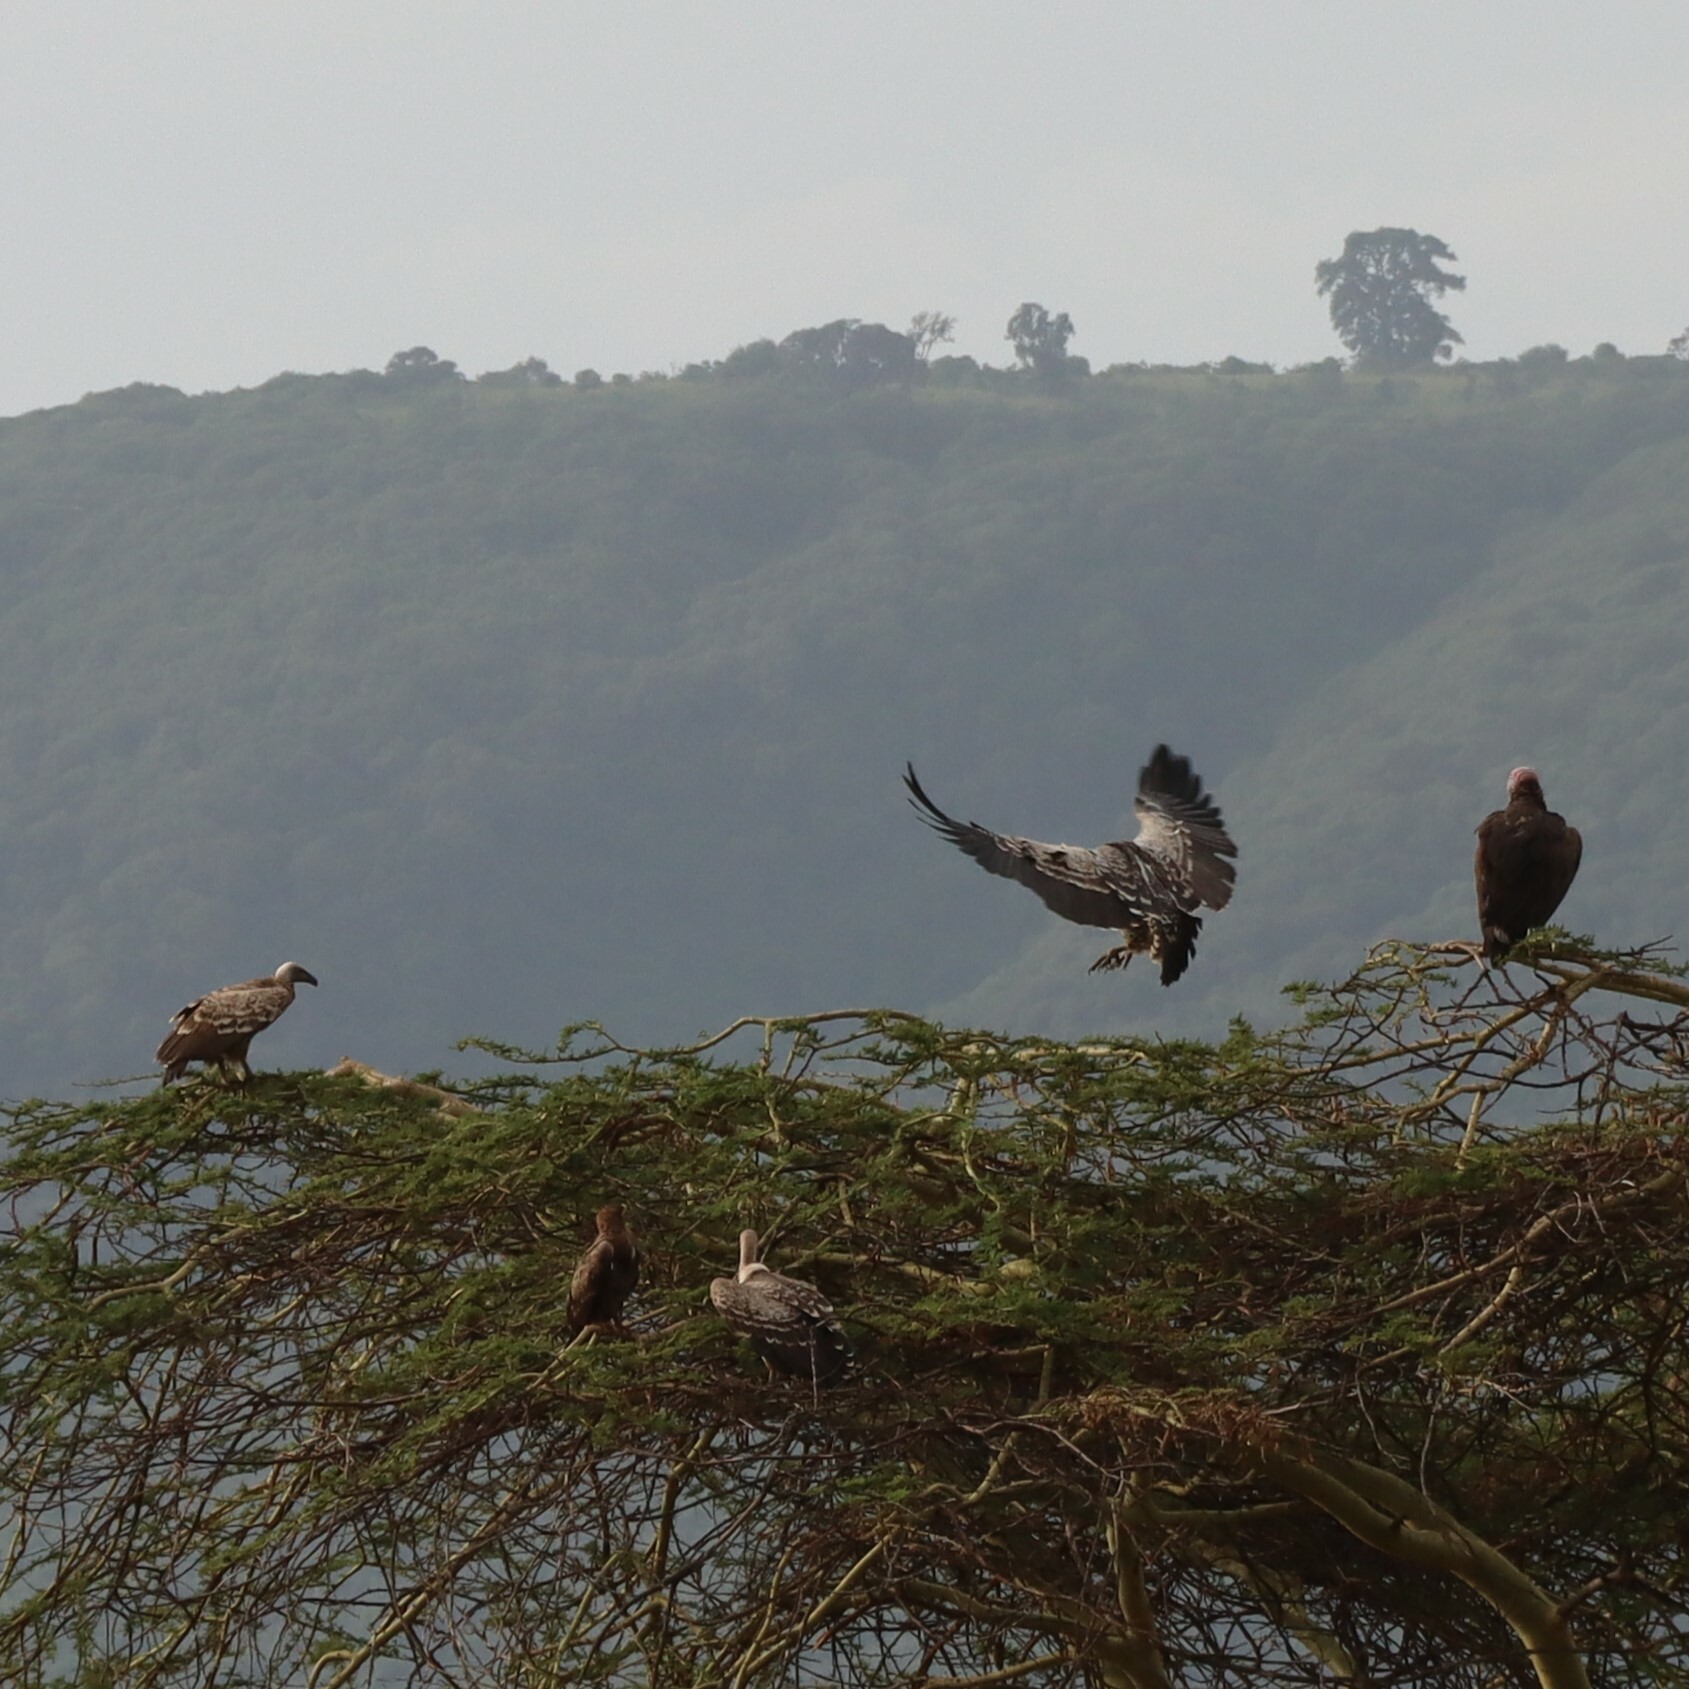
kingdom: Animalia
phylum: Chordata
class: Aves
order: Accipitriformes
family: Accipitridae
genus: Gyps
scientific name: Gyps rueppellii
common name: Rüppell's vulture
